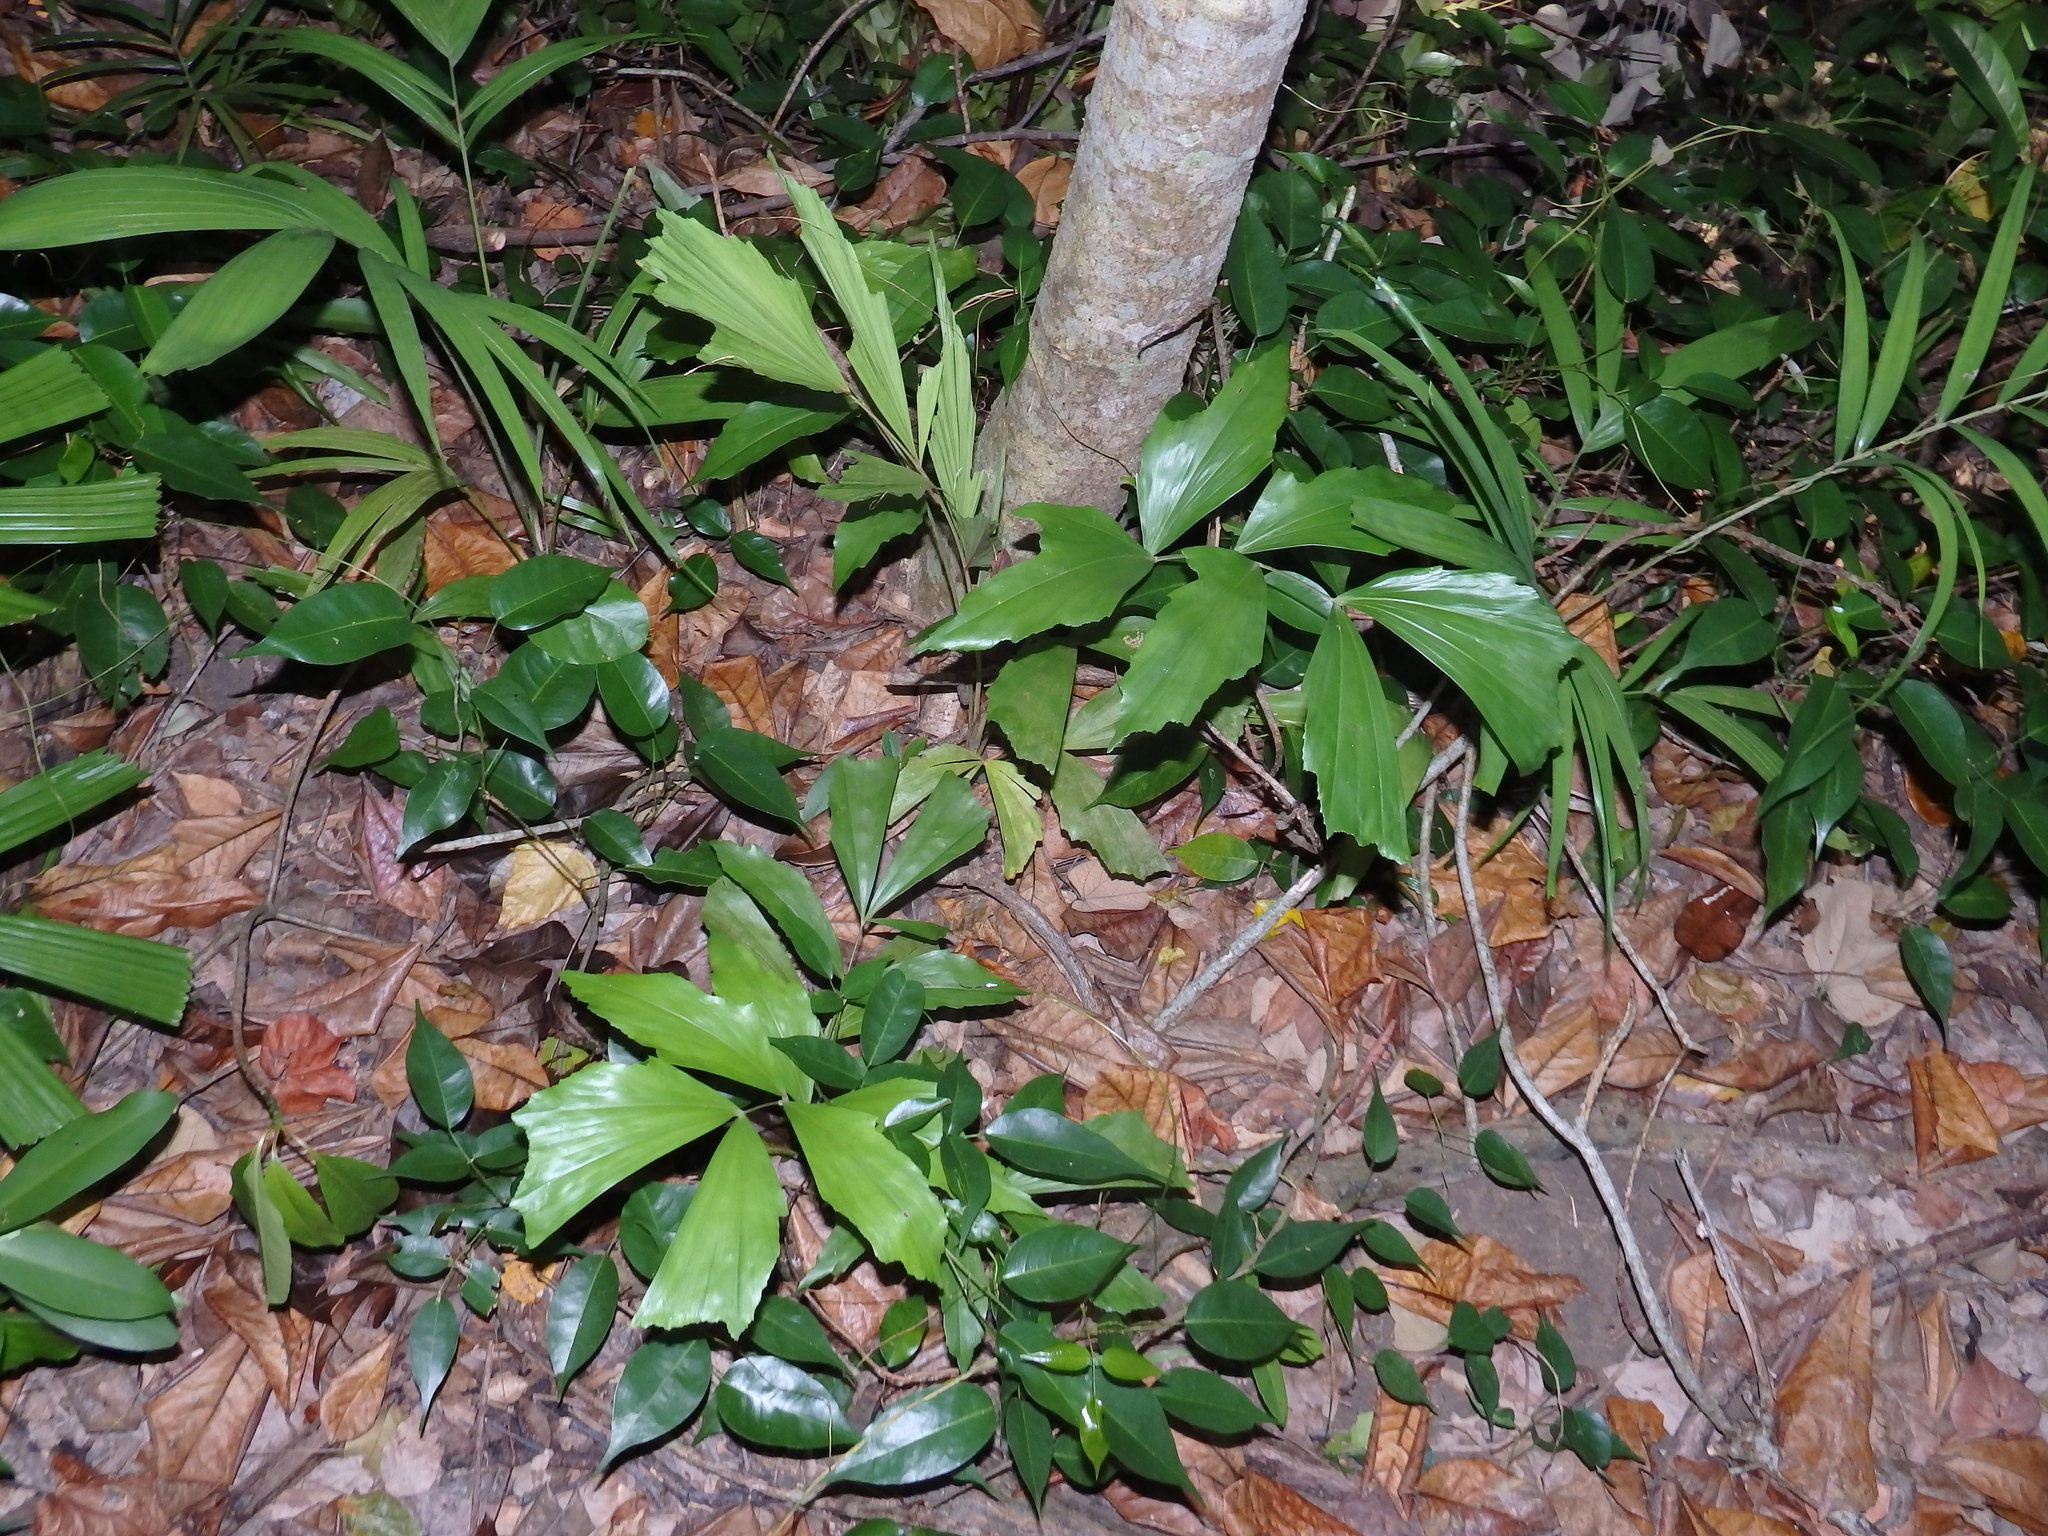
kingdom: Plantae
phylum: Tracheophyta
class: Liliopsida
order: Arecales
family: Arecaceae
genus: Caryota
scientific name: Caryota mitis
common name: Burmese fishtail palm
